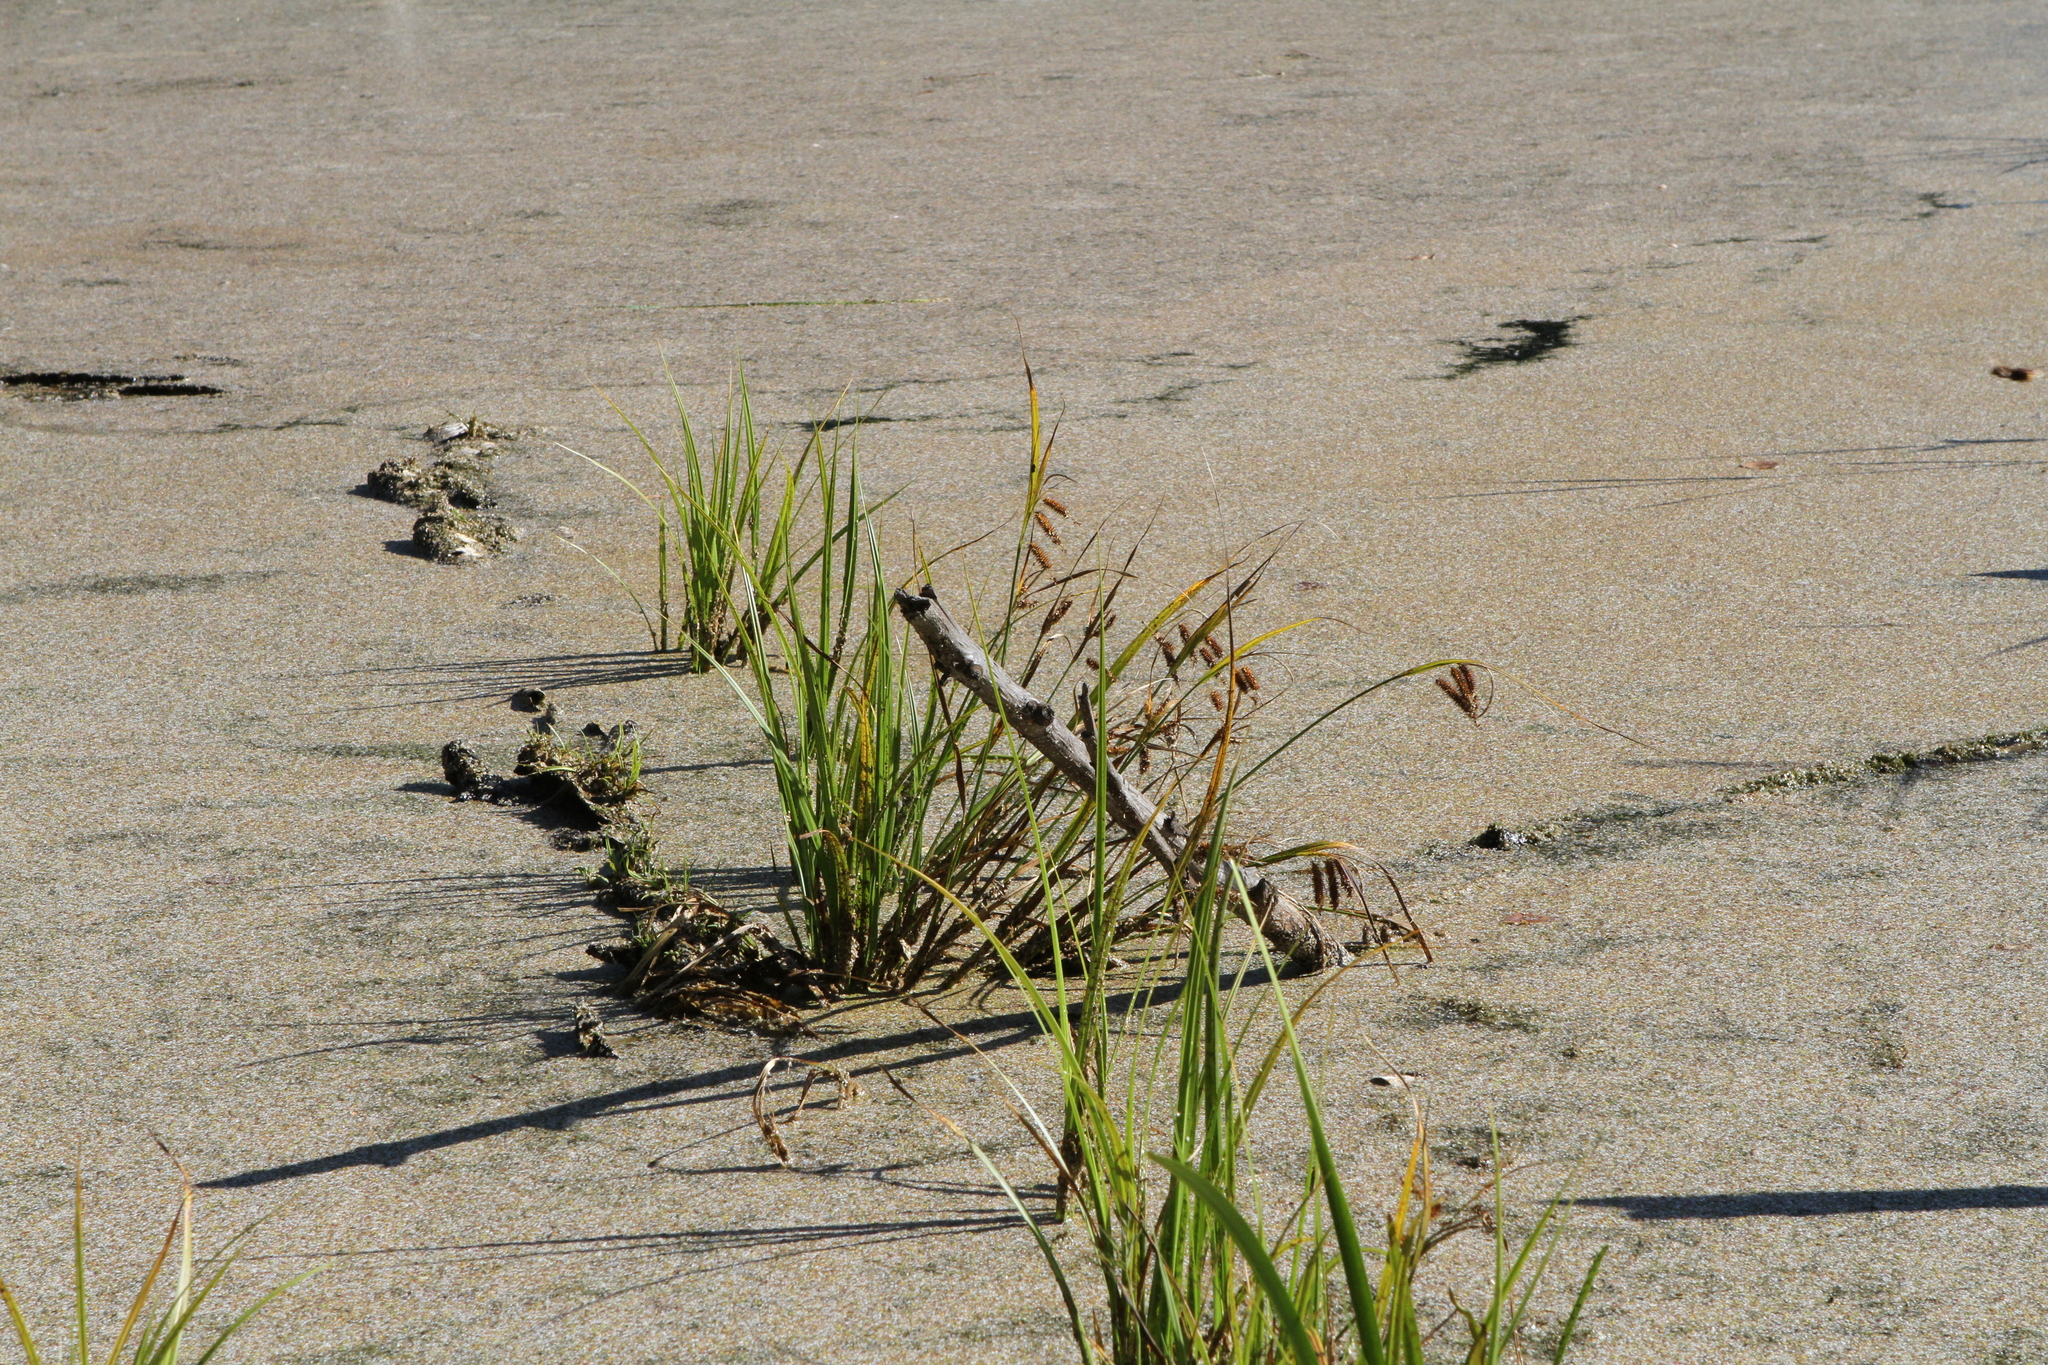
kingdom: Plantae
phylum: Tracheophyta
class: Liliopsida
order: Poales
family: Cyperaceae
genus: Carex
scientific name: Carex pseudocyperus
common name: Cyperus sedge
